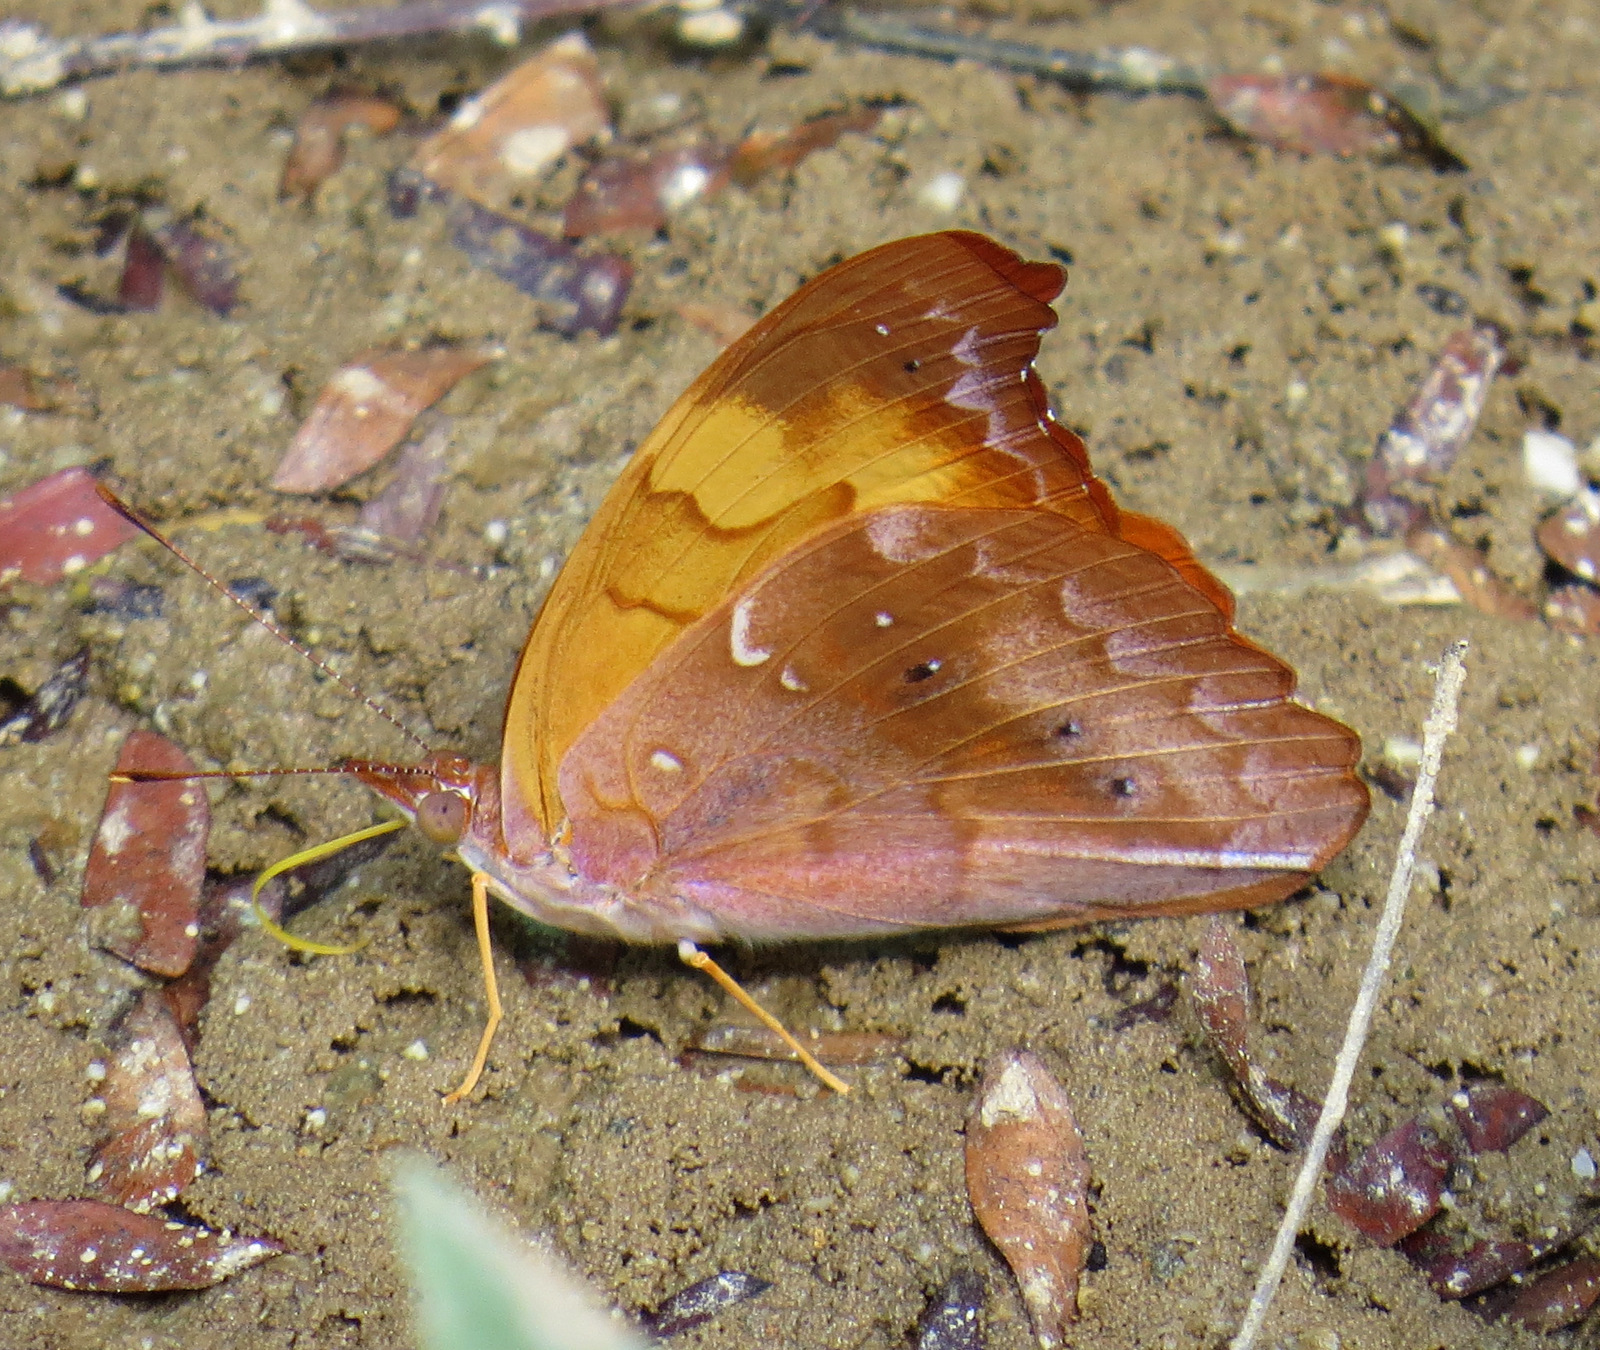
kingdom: Animalia
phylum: Arthropoda
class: Insecta
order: Lepidoptera
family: Nymphalidae
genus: Temenis
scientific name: Temenis laothoe
